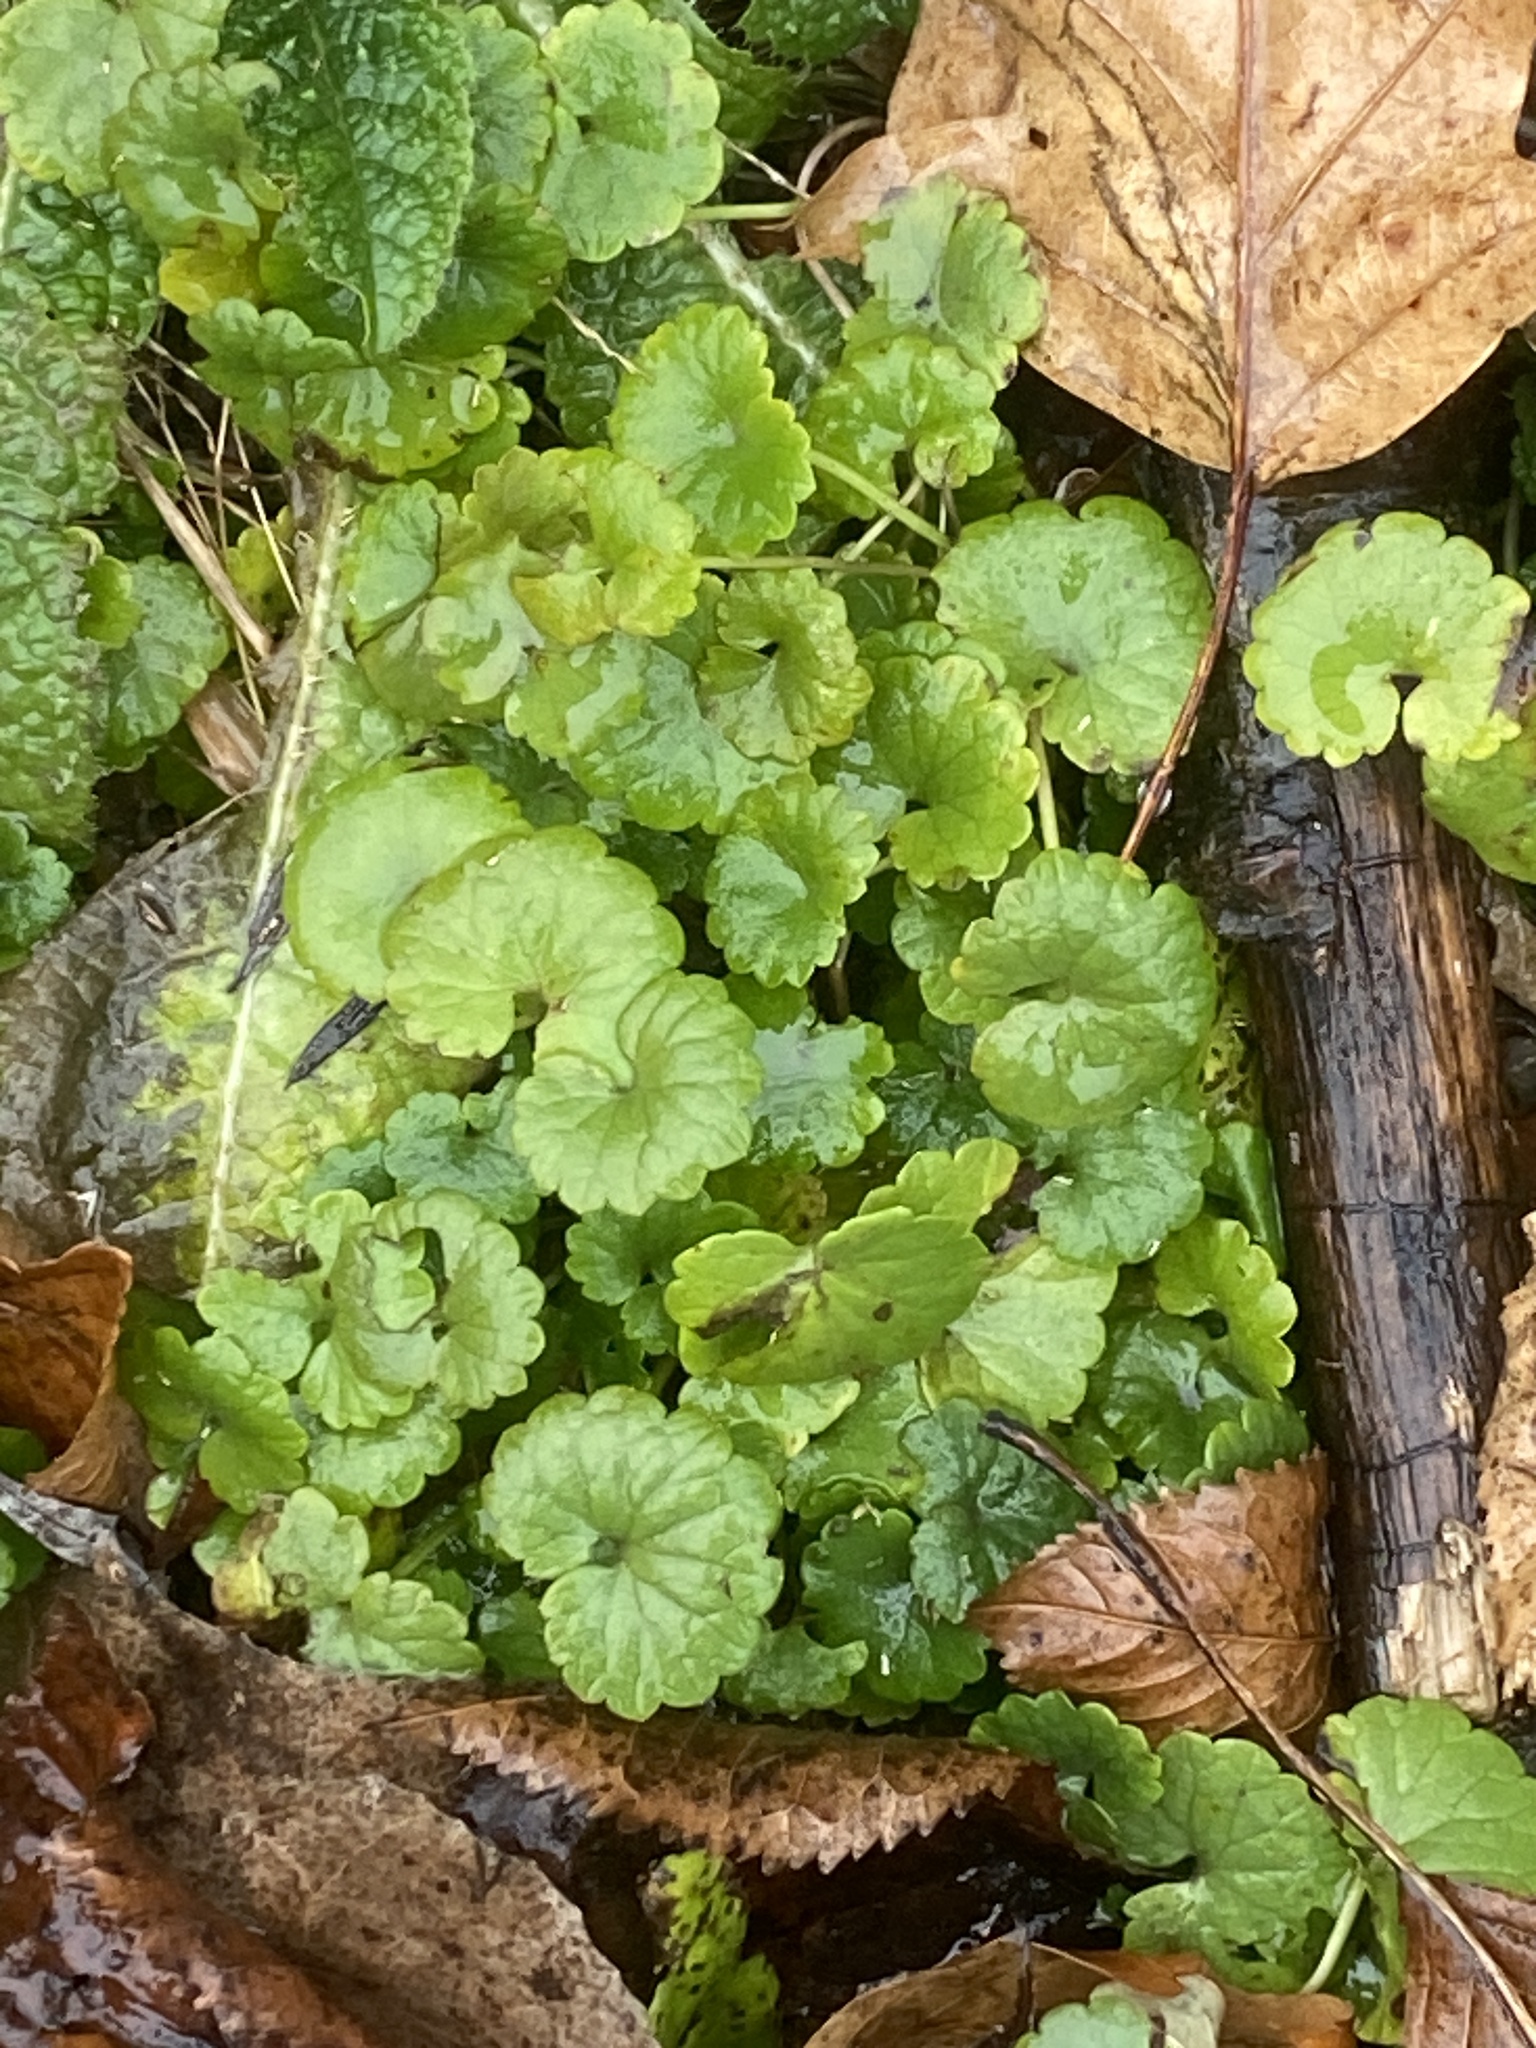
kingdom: Plantae
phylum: Tracheophyta
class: Magnoliopsida
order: Lamiales
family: Lamiaceae
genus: Glechoma
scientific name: Glechoma hederacea
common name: Ground ivy
